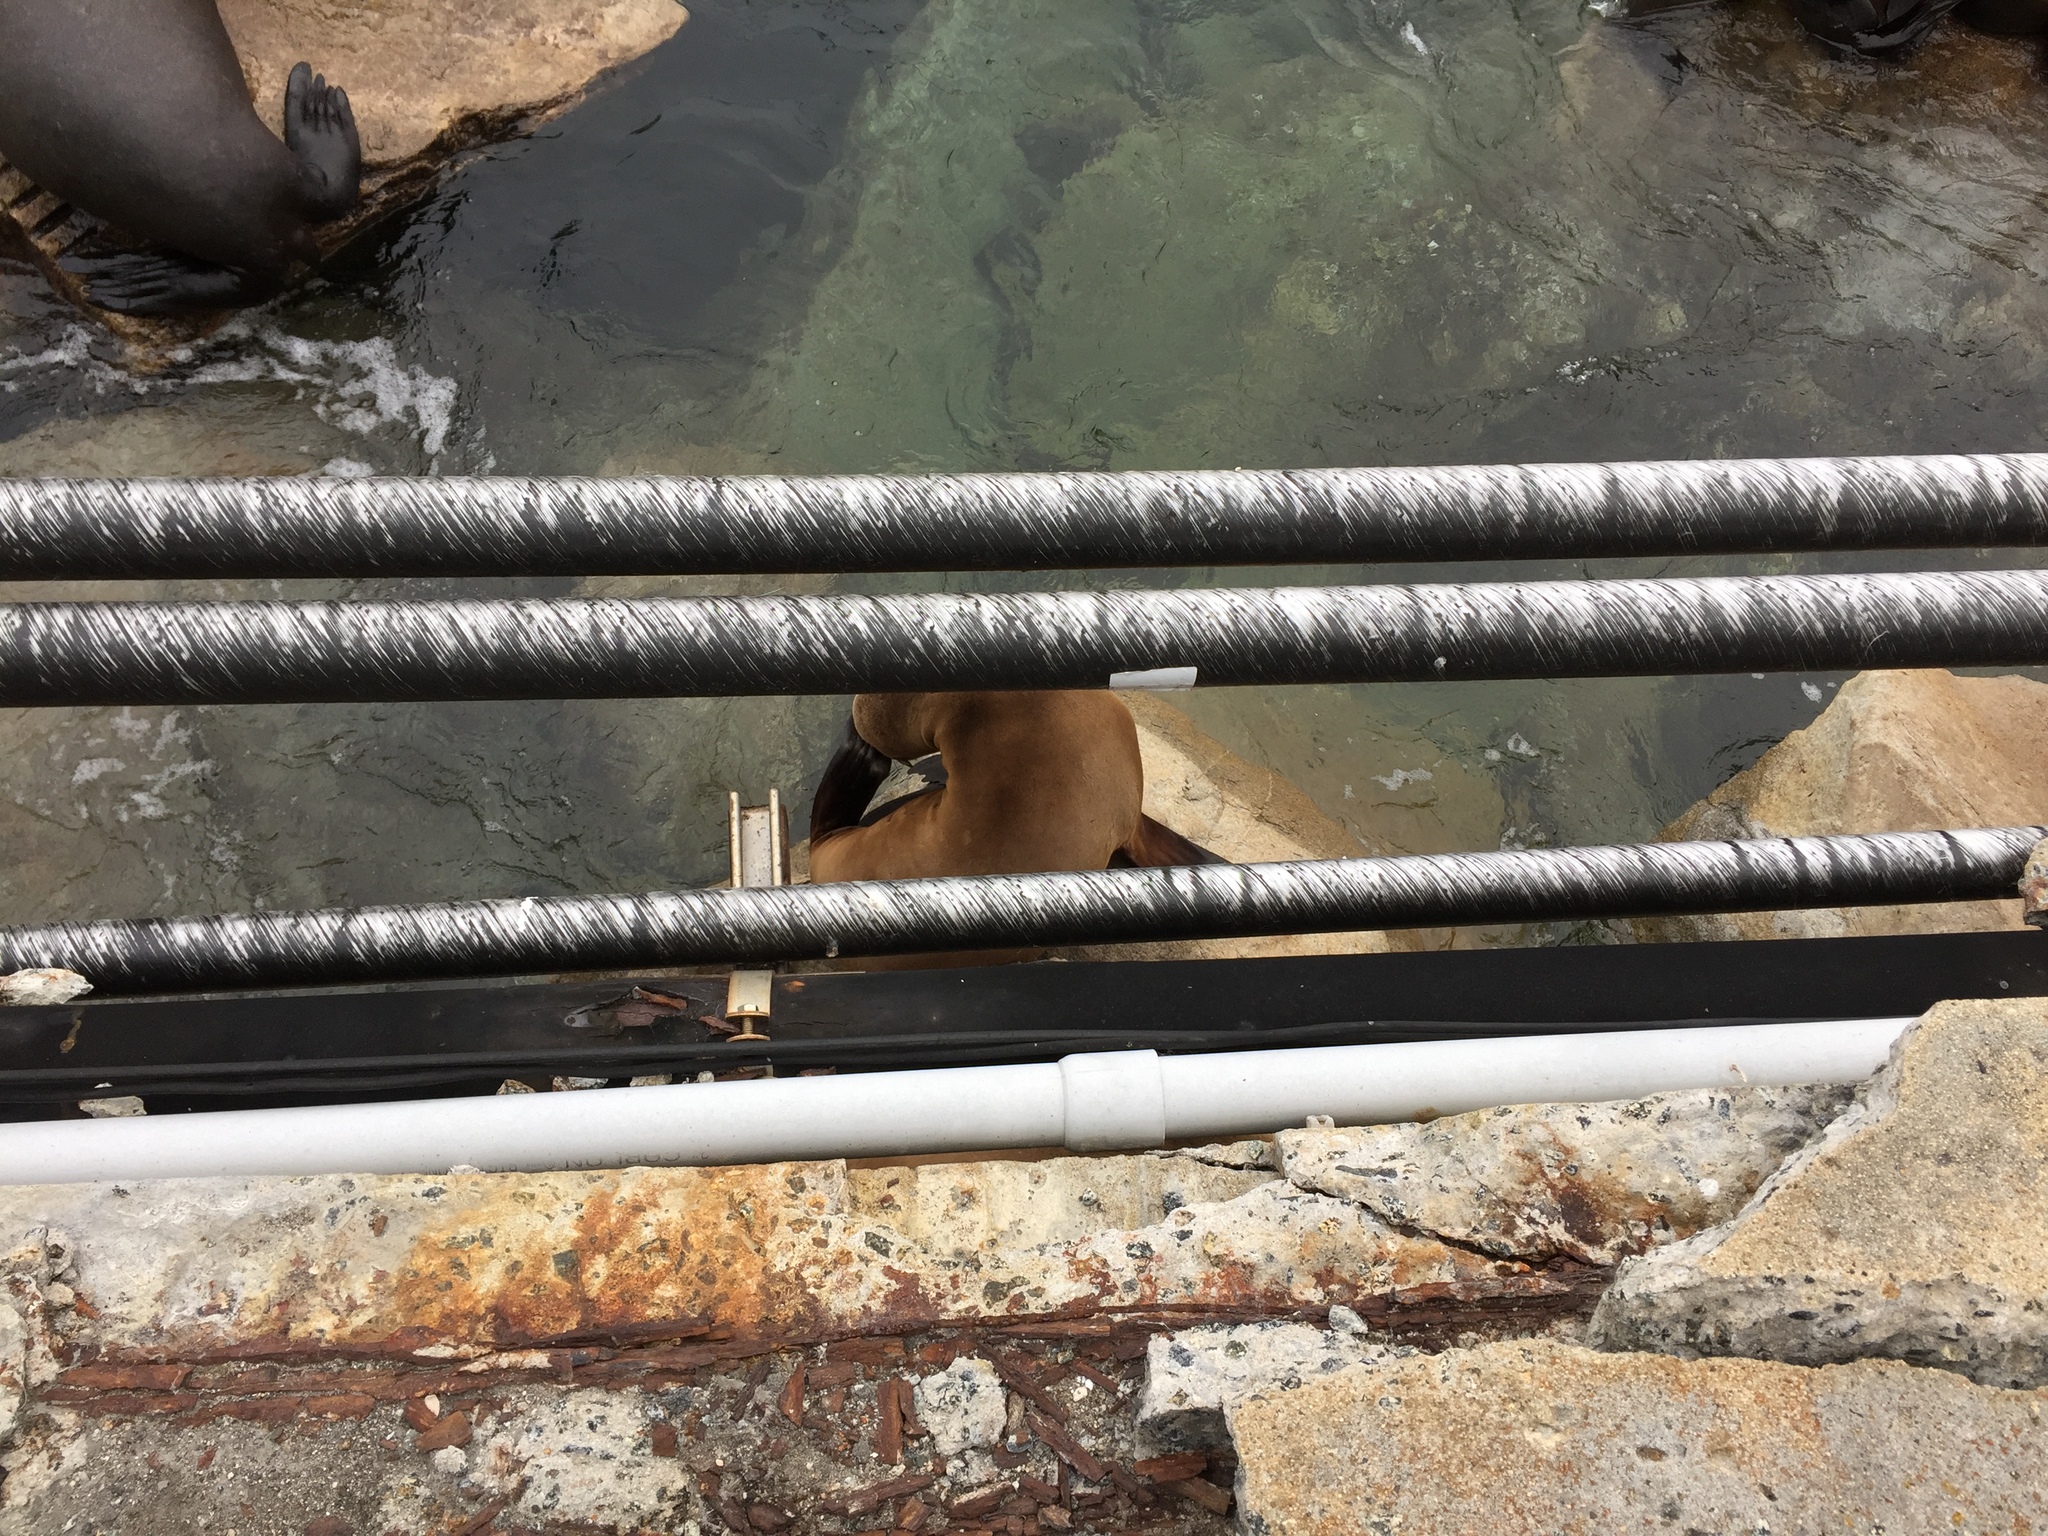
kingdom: Animalia
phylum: Chordata
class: Mammalia
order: Carnivora
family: Otariidae
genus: Zalophus
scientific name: Zalophus californianus
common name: California sea lion
